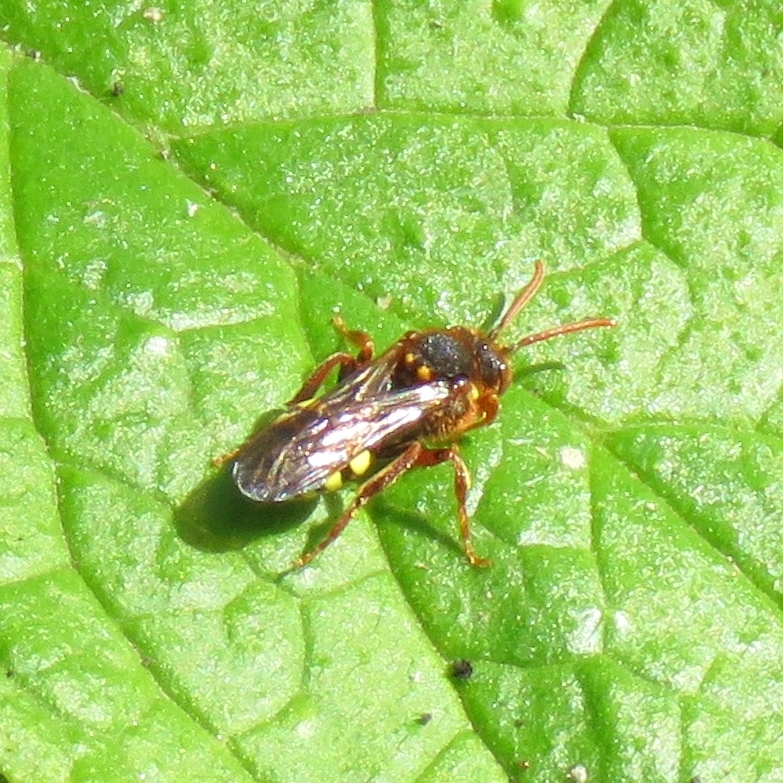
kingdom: Animalia
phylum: Arthropoda
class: Insecta
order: Hymenoptera
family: Apidae
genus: Nomada
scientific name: Nomada lathburiana
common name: Lathbury's nomad bee
